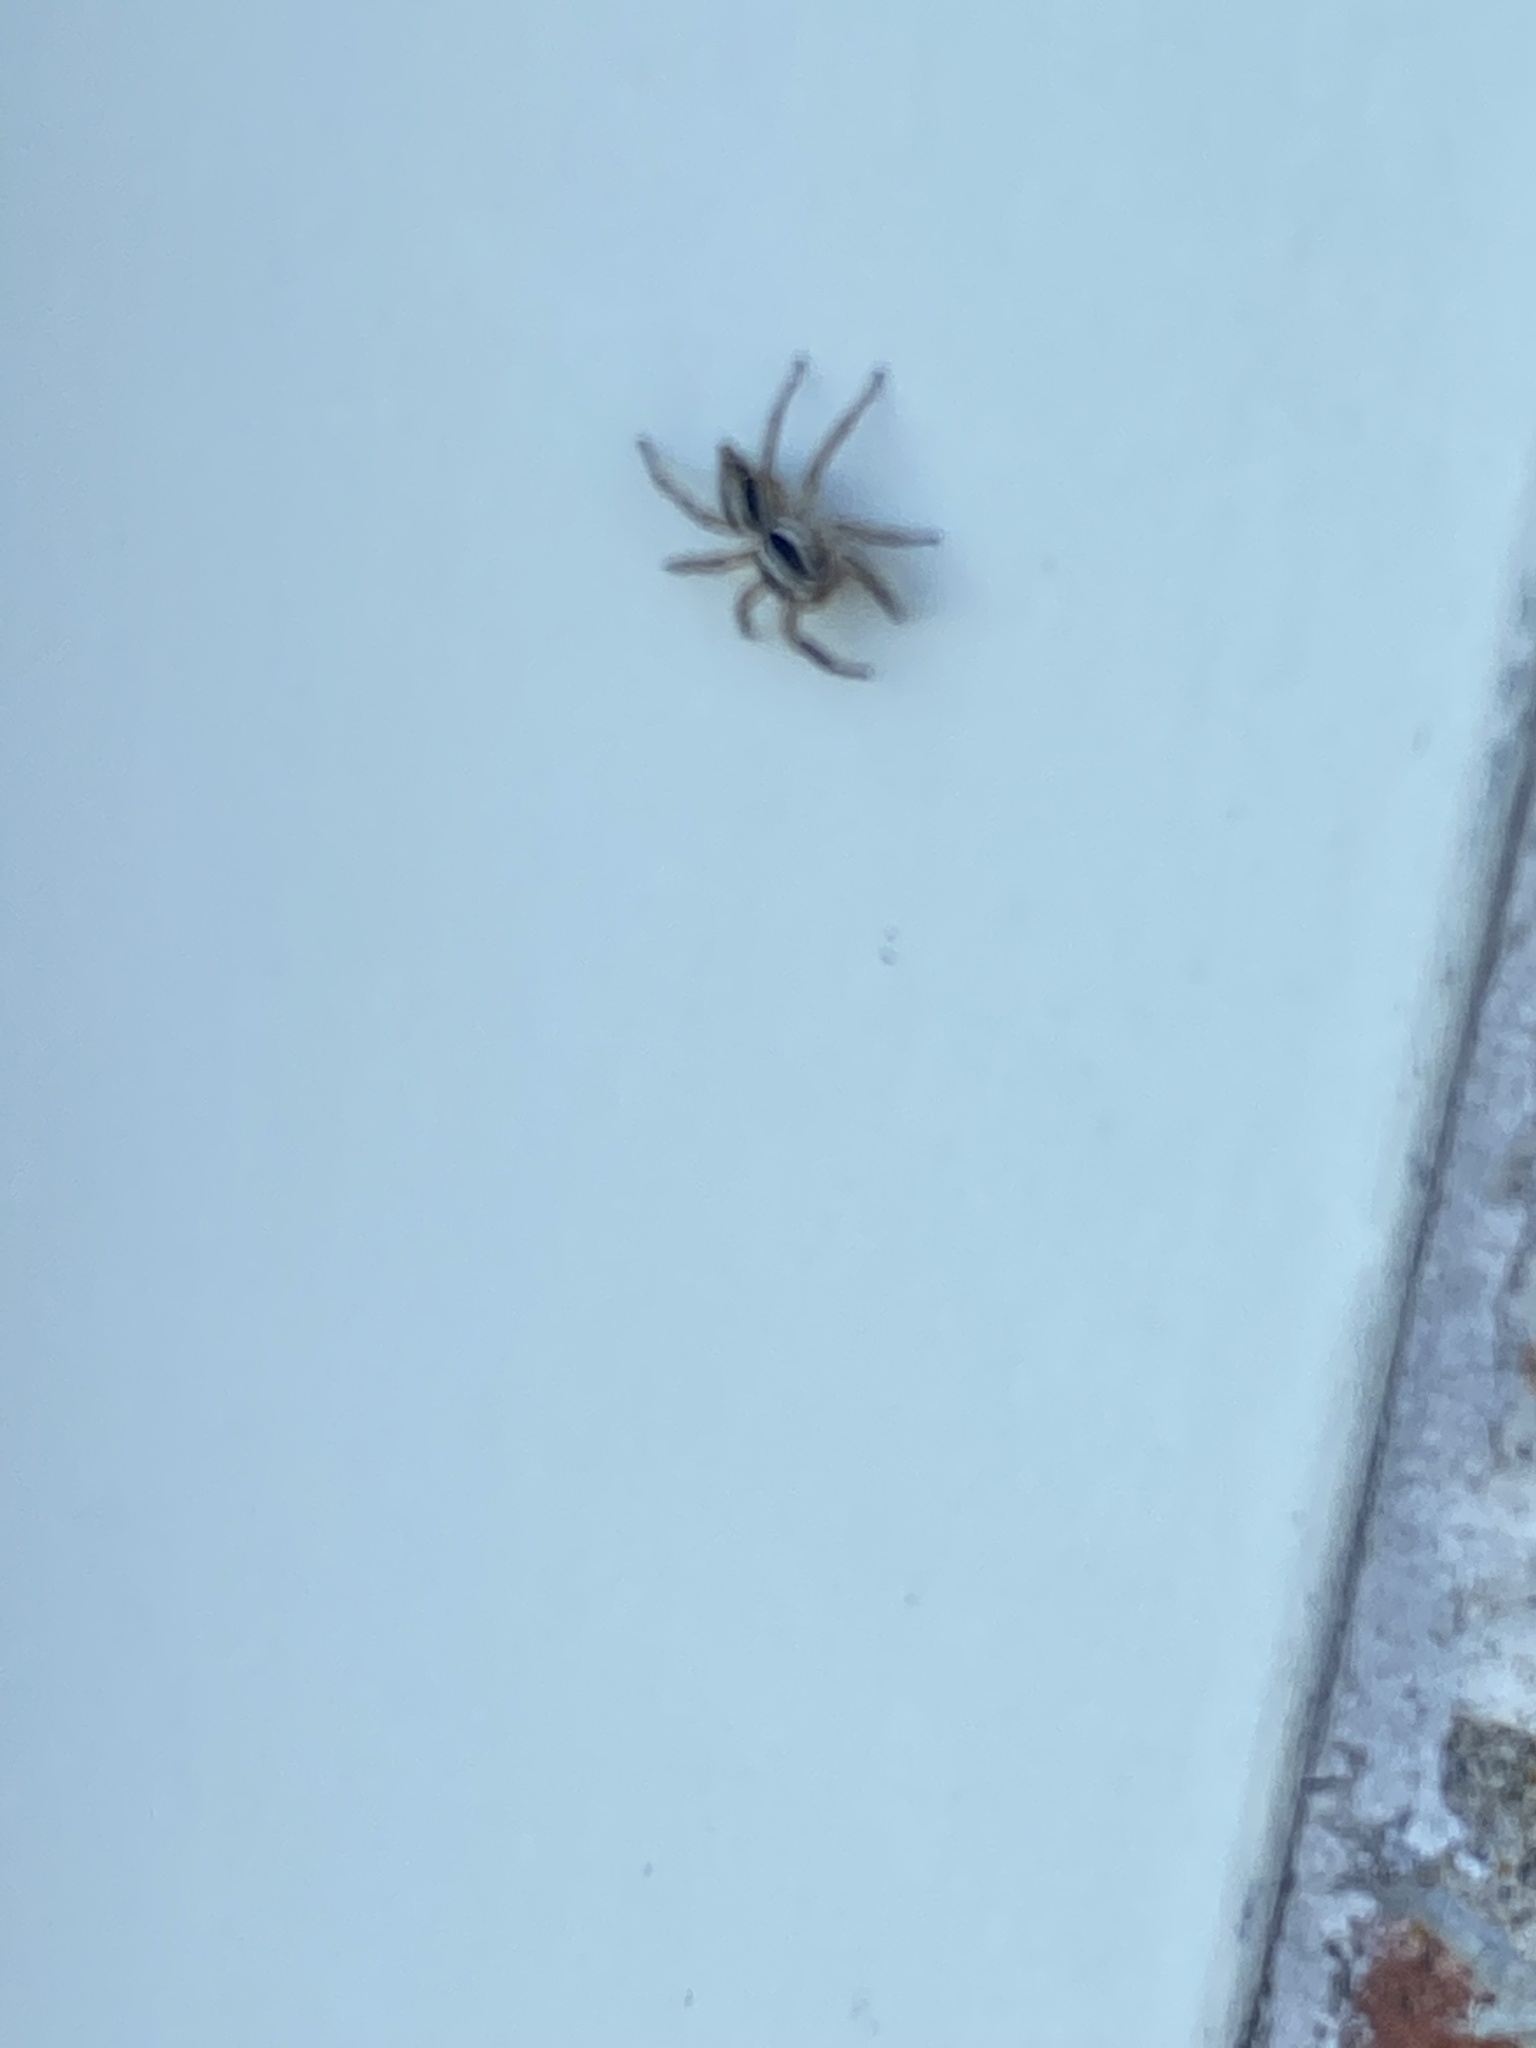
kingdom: Animalia
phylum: Arthropoda
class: Arachnida
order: Araneae
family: Salticidae
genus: Plexippus
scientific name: Plexippus paykulli
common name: Pantropical jumper
